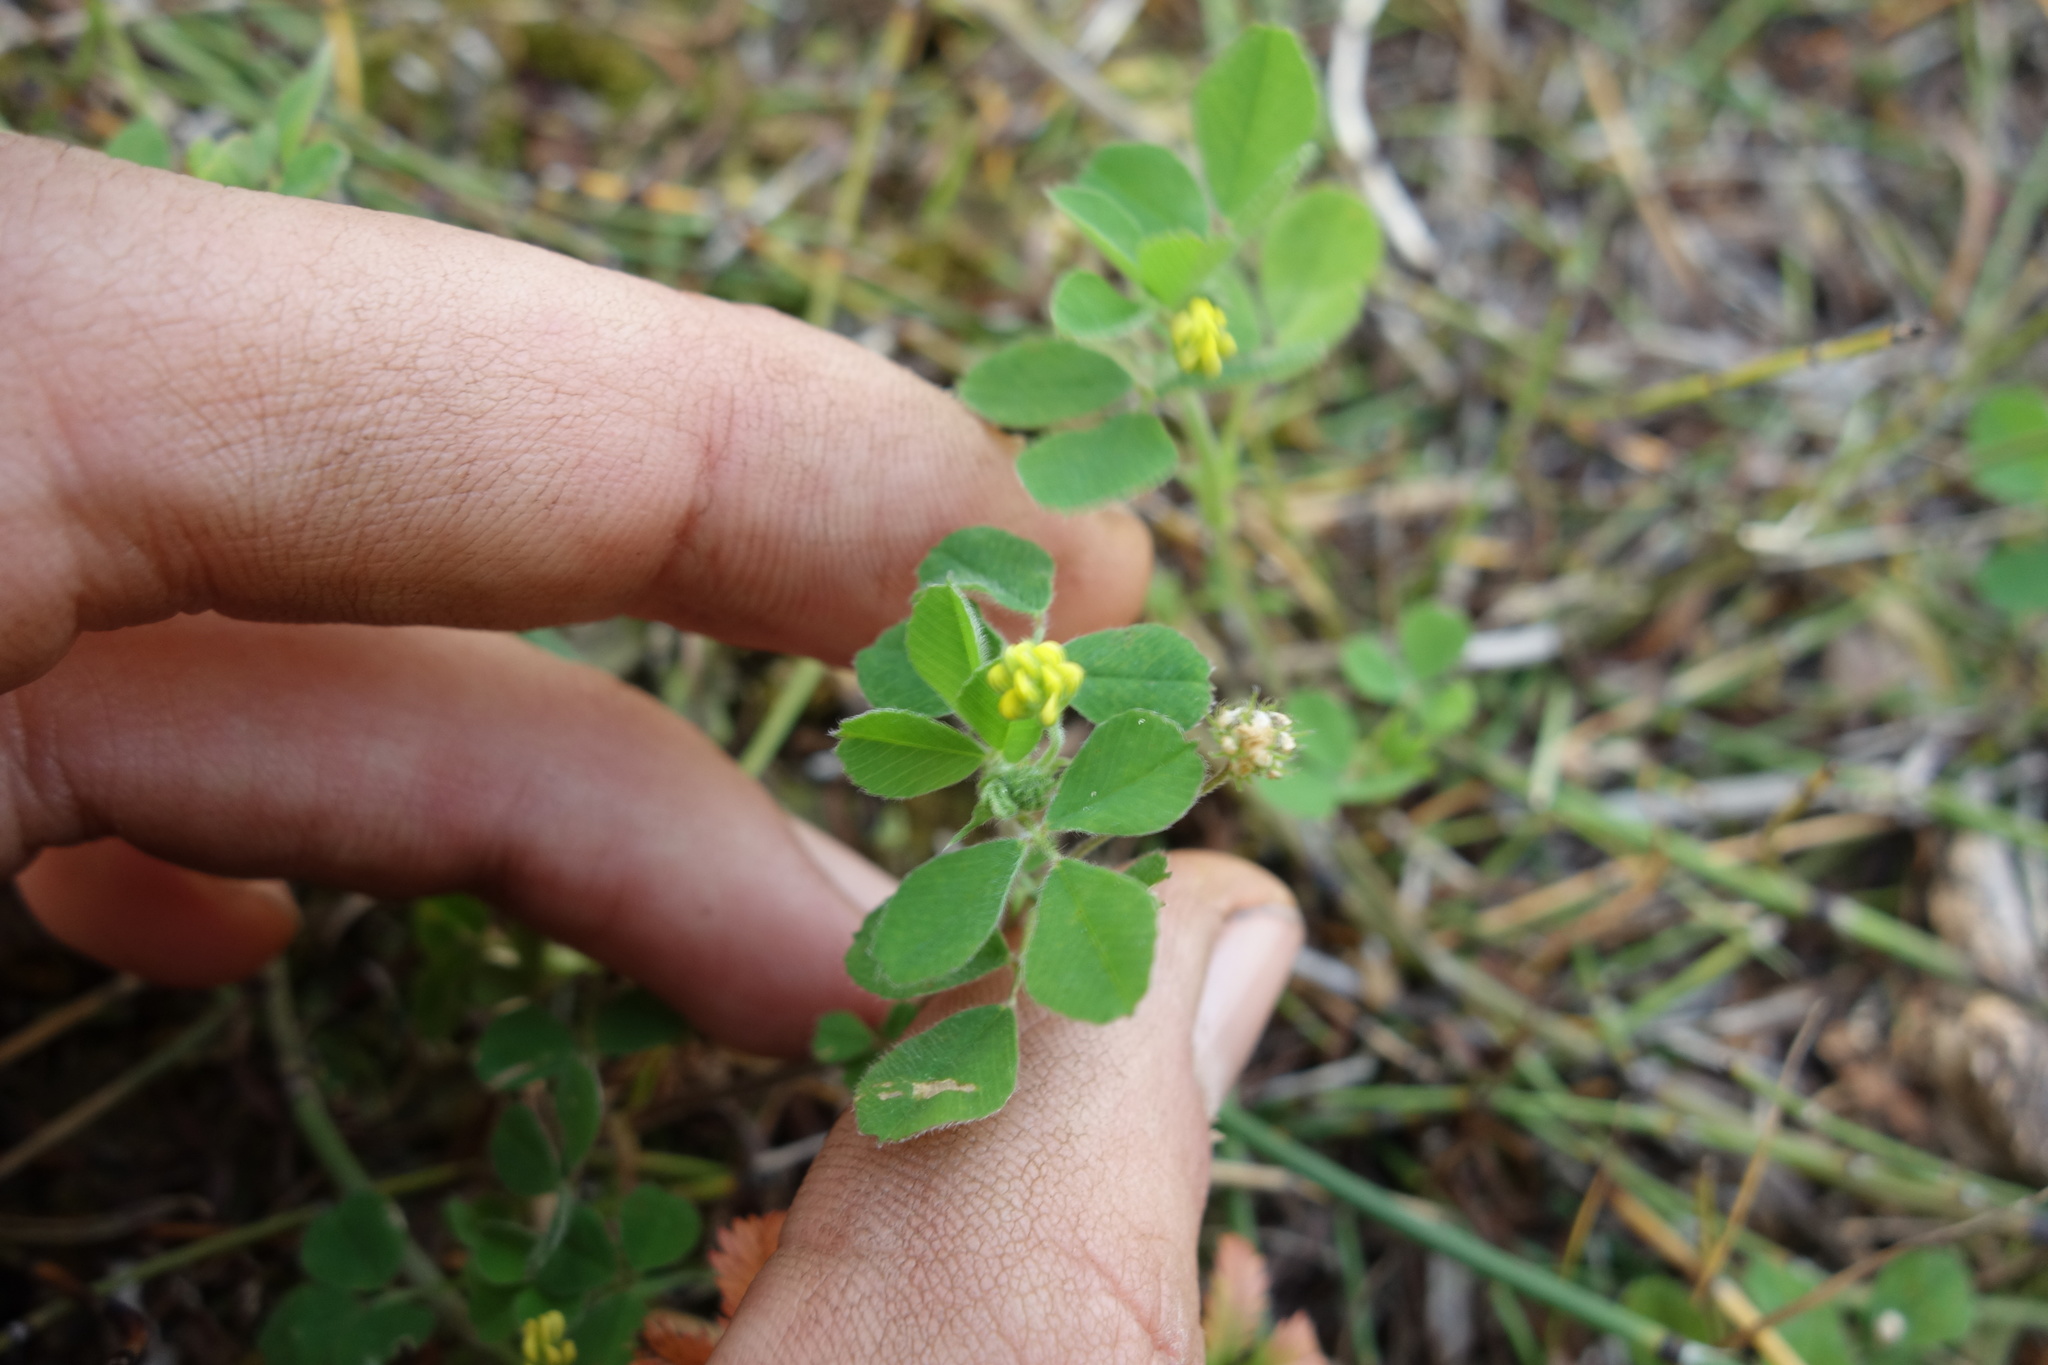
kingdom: Plantae
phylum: Tracheophyta
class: Magnoliopsida
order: Fabales
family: Fabaceae
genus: Medicago
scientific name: Medicago lupulina
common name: Black medick
